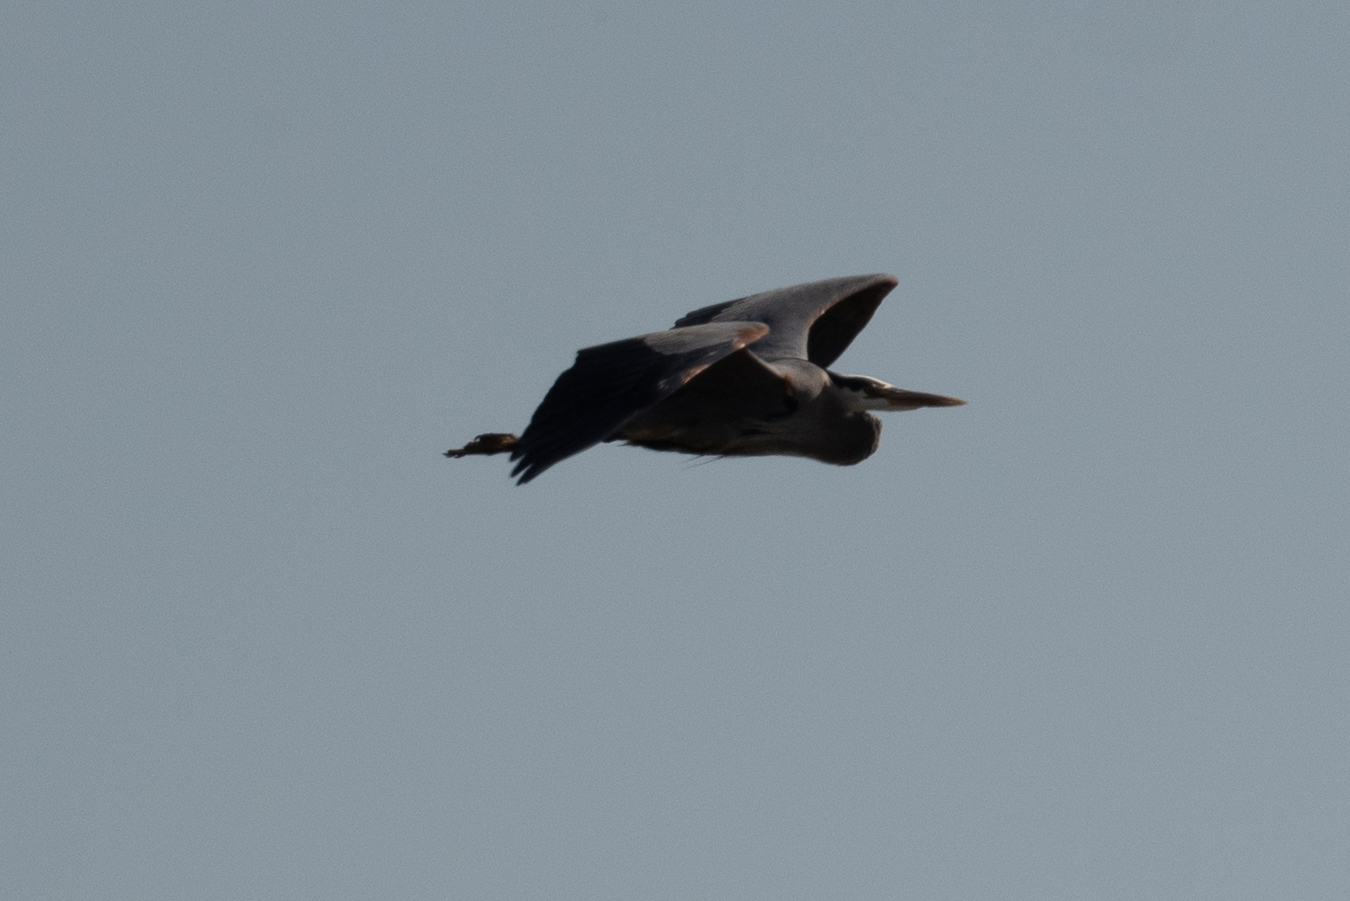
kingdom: Animalia
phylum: Chordata
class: Aves
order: Pelecaniformes
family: Ardeidae
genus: Ardea
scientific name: Ardea herodias
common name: Great blue heron
